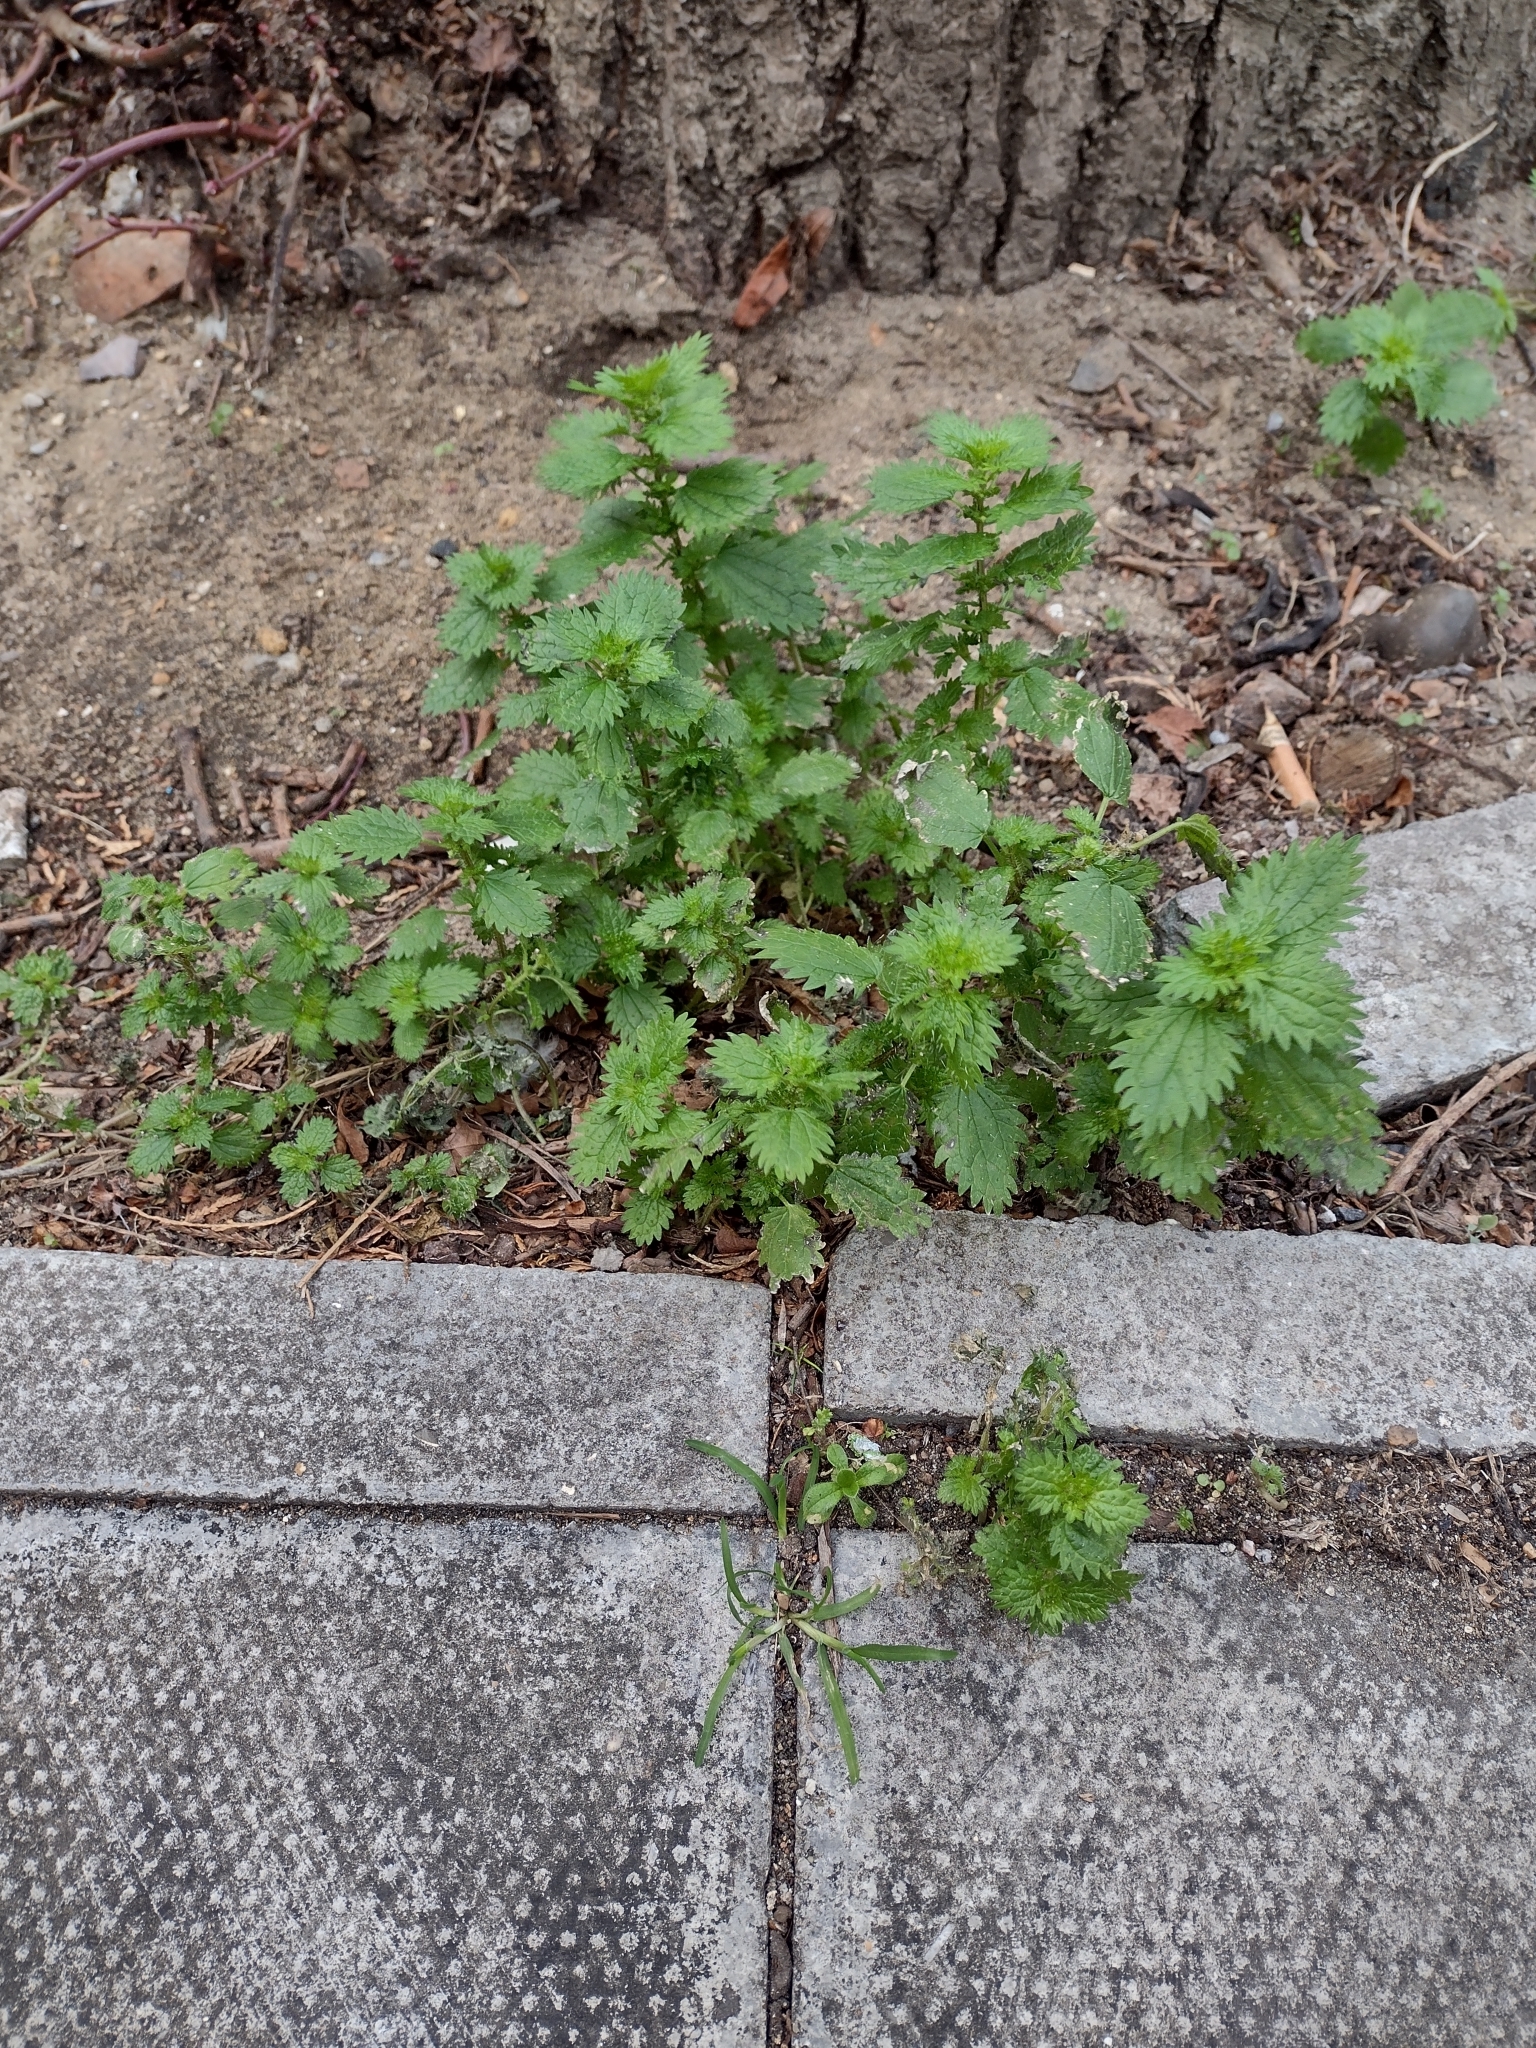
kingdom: Plantae
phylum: Tracheophyta
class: Magnoliopsida
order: Rosales
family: Urticaceae
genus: Urtica
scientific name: Urtica urens
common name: Dwarf nettle
